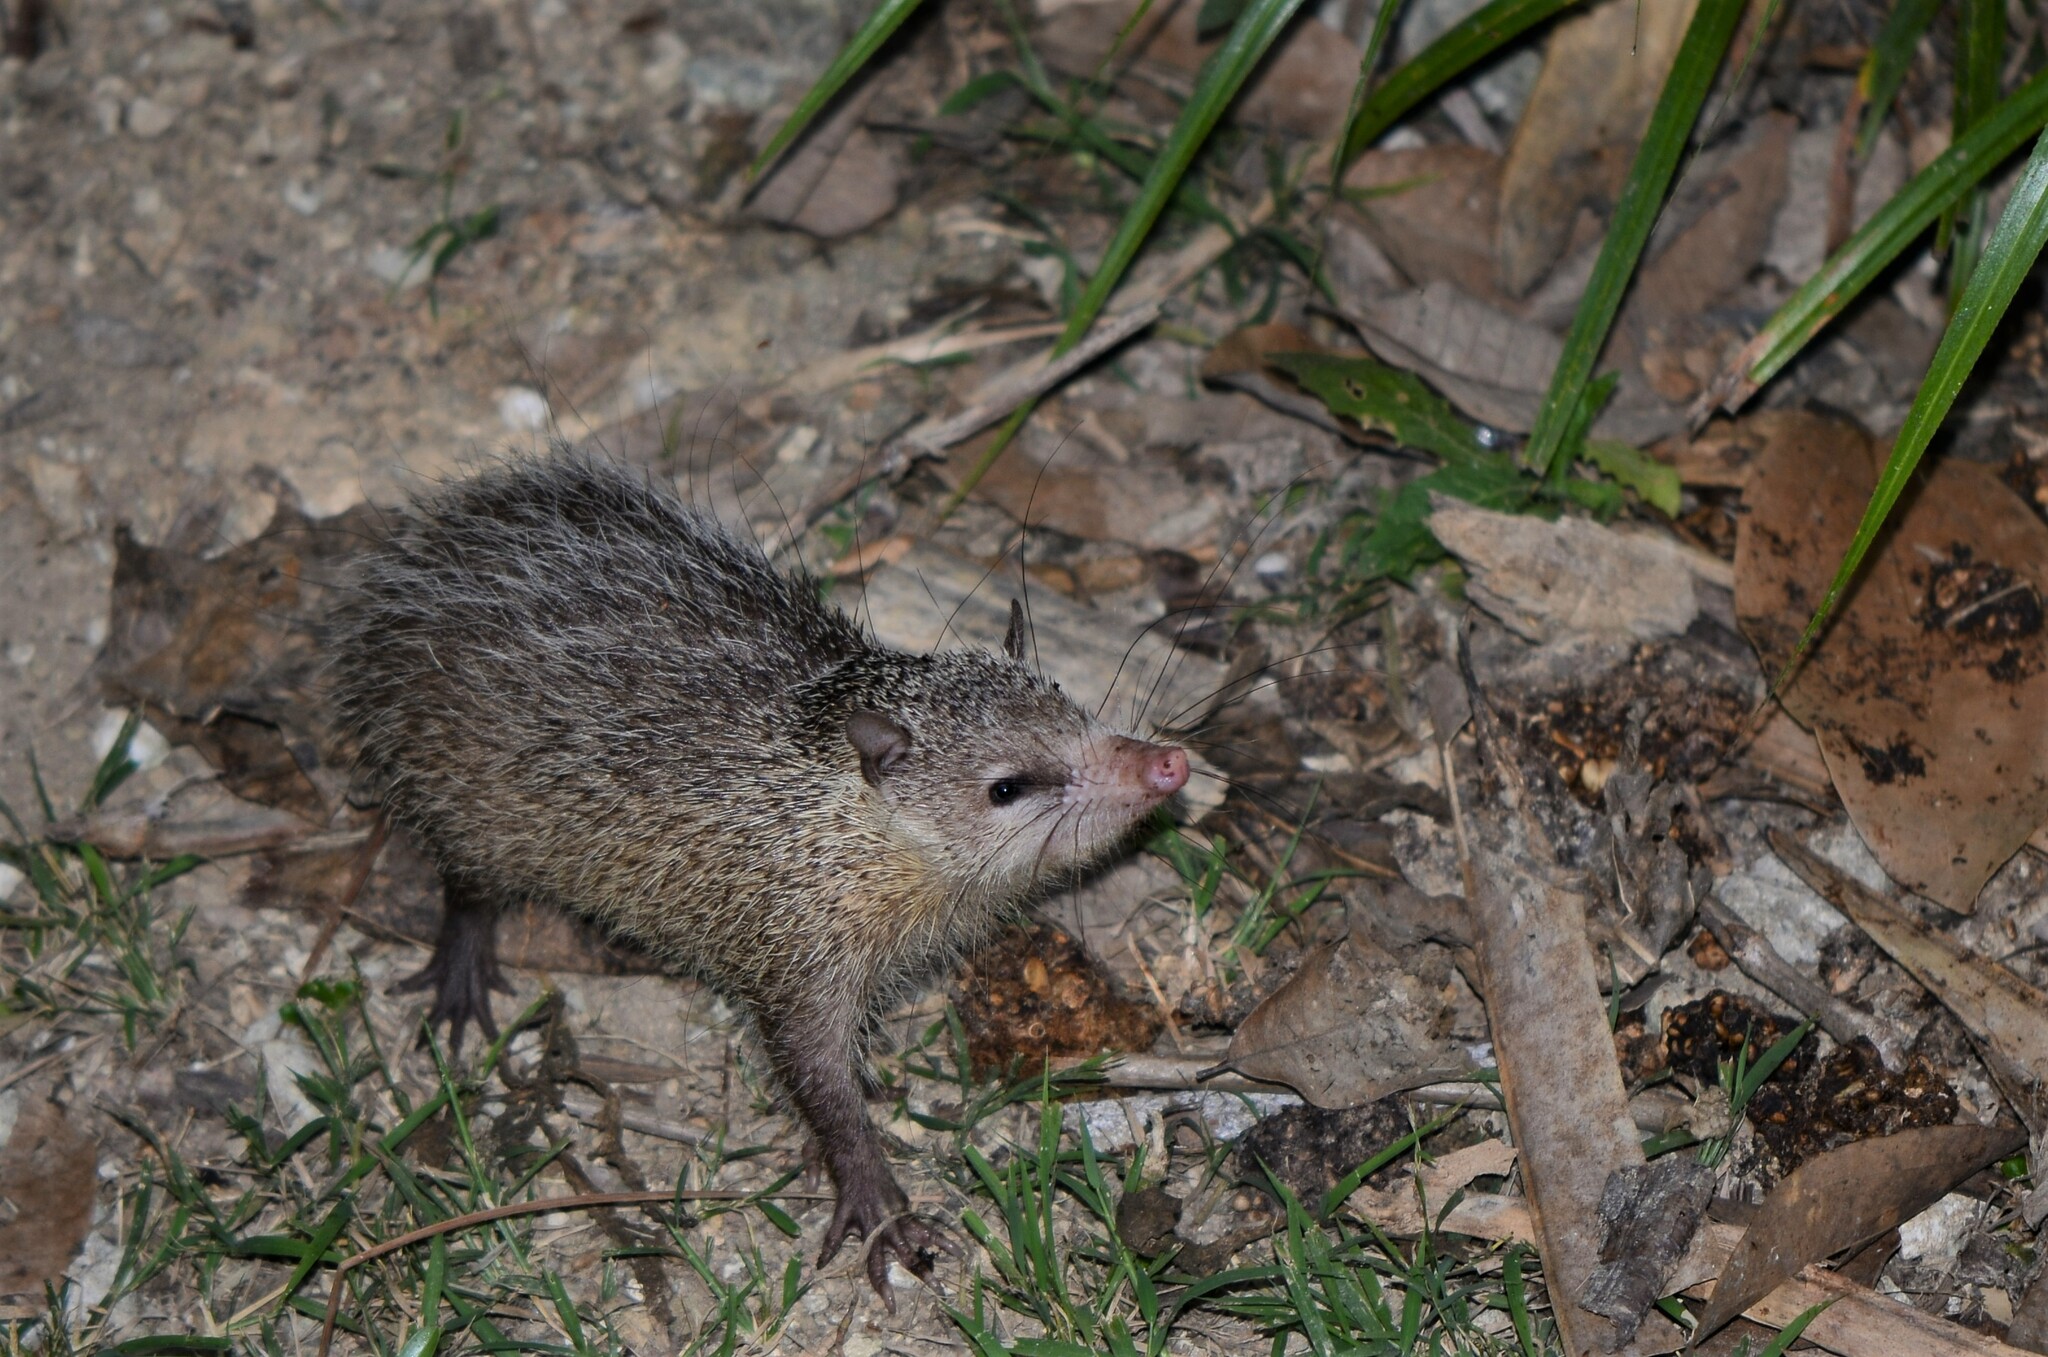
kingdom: Animalia
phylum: Chordata
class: Mammalia
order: Afrosoricida
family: Tenrecidae
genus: Tenrec
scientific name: Tenrec ecaudatus
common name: Common tenrec
